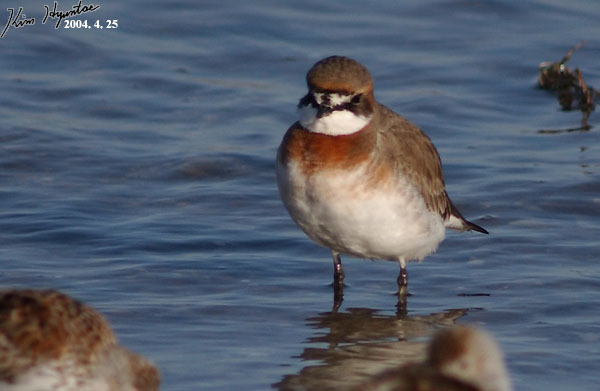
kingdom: Animalia
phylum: Chordata
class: Aves
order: Charadriiformes
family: Charadriidae
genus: Anarhynchus
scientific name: Anarhynchus
